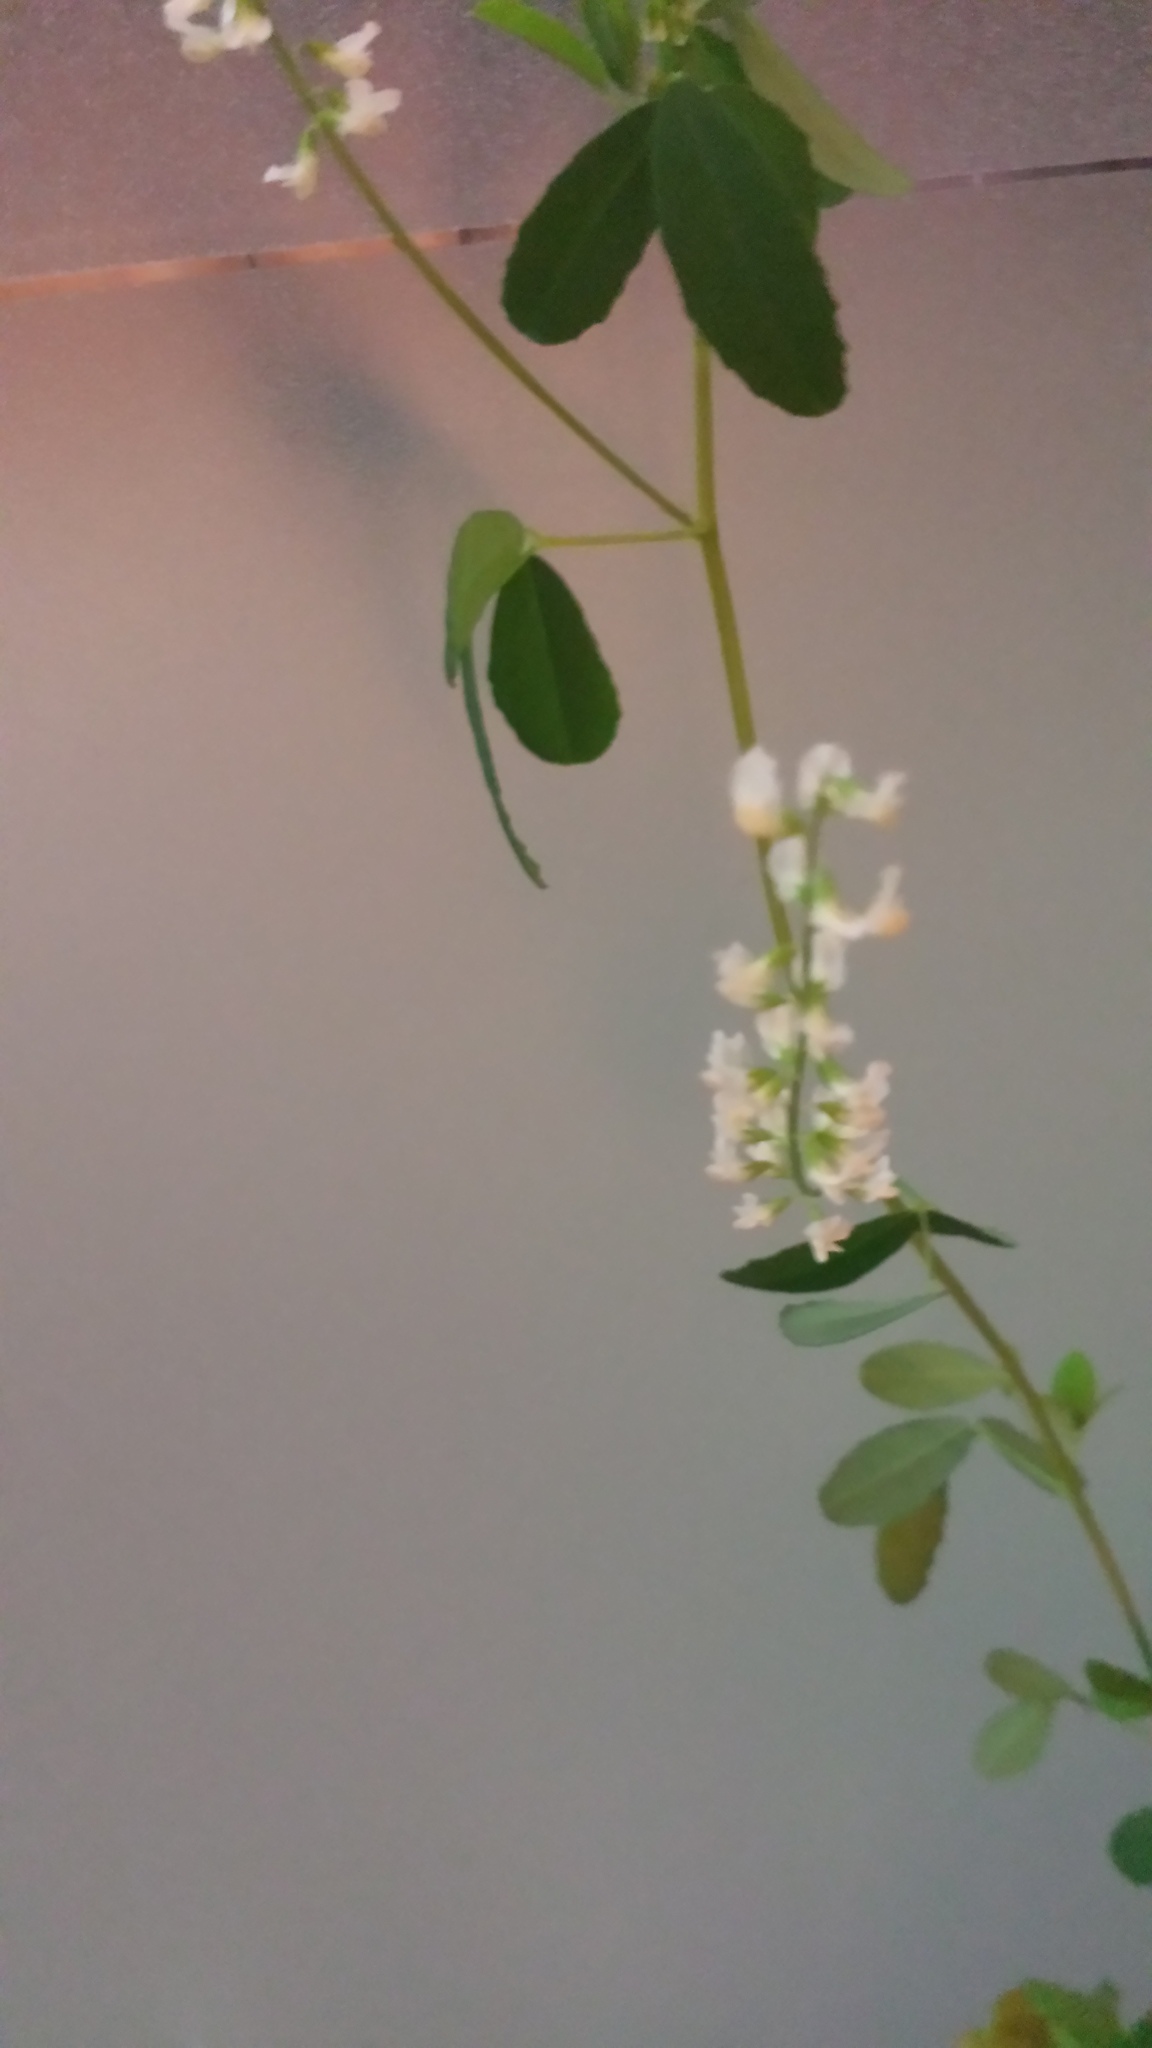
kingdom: Plantae
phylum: Tracheophyta
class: Magnoliopsida
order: Fabales
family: Fabaceae
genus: Melilotus
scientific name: Melilotus albus
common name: White melilot
